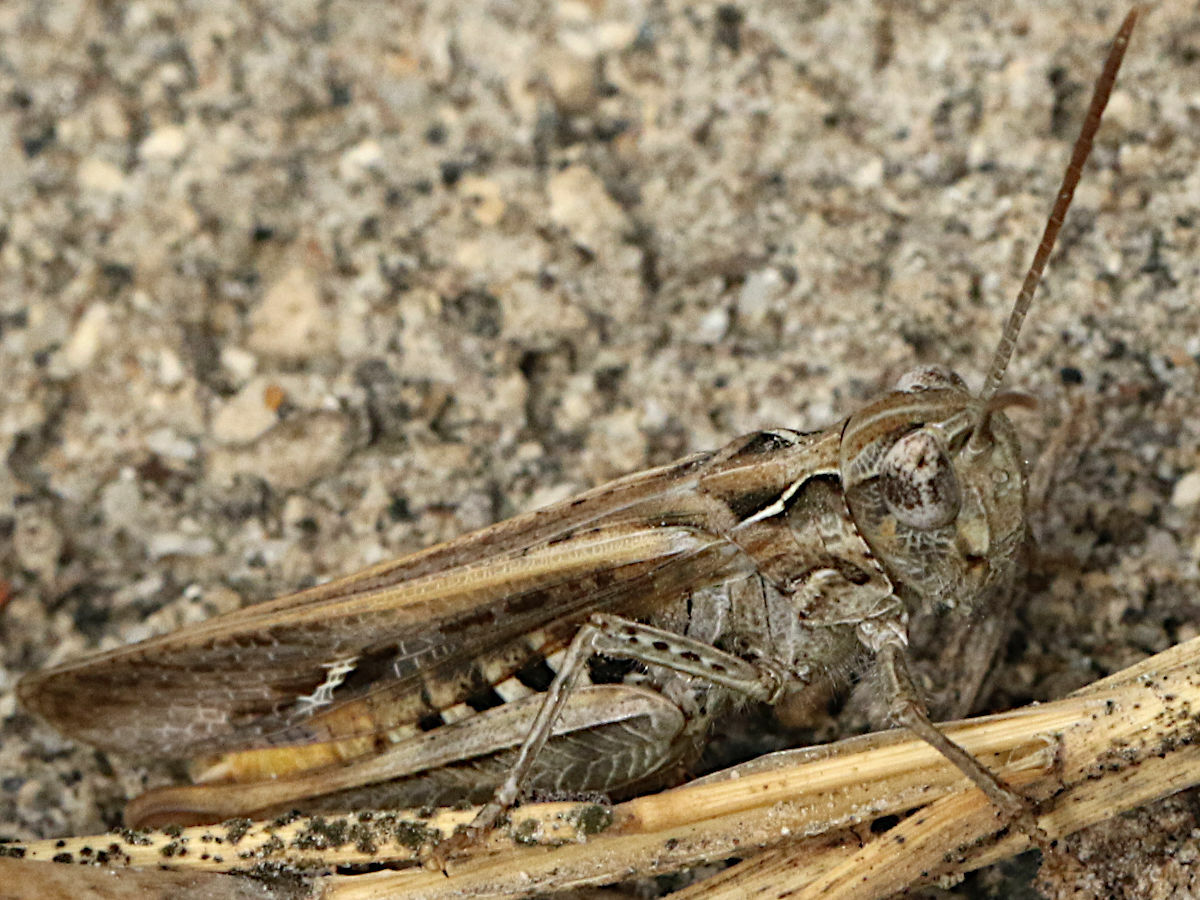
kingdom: Animalia
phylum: Arthropoda
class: Insecta
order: Orthoptera
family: Acrididae
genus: Chorthippus
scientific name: Chorthippus maritimus
